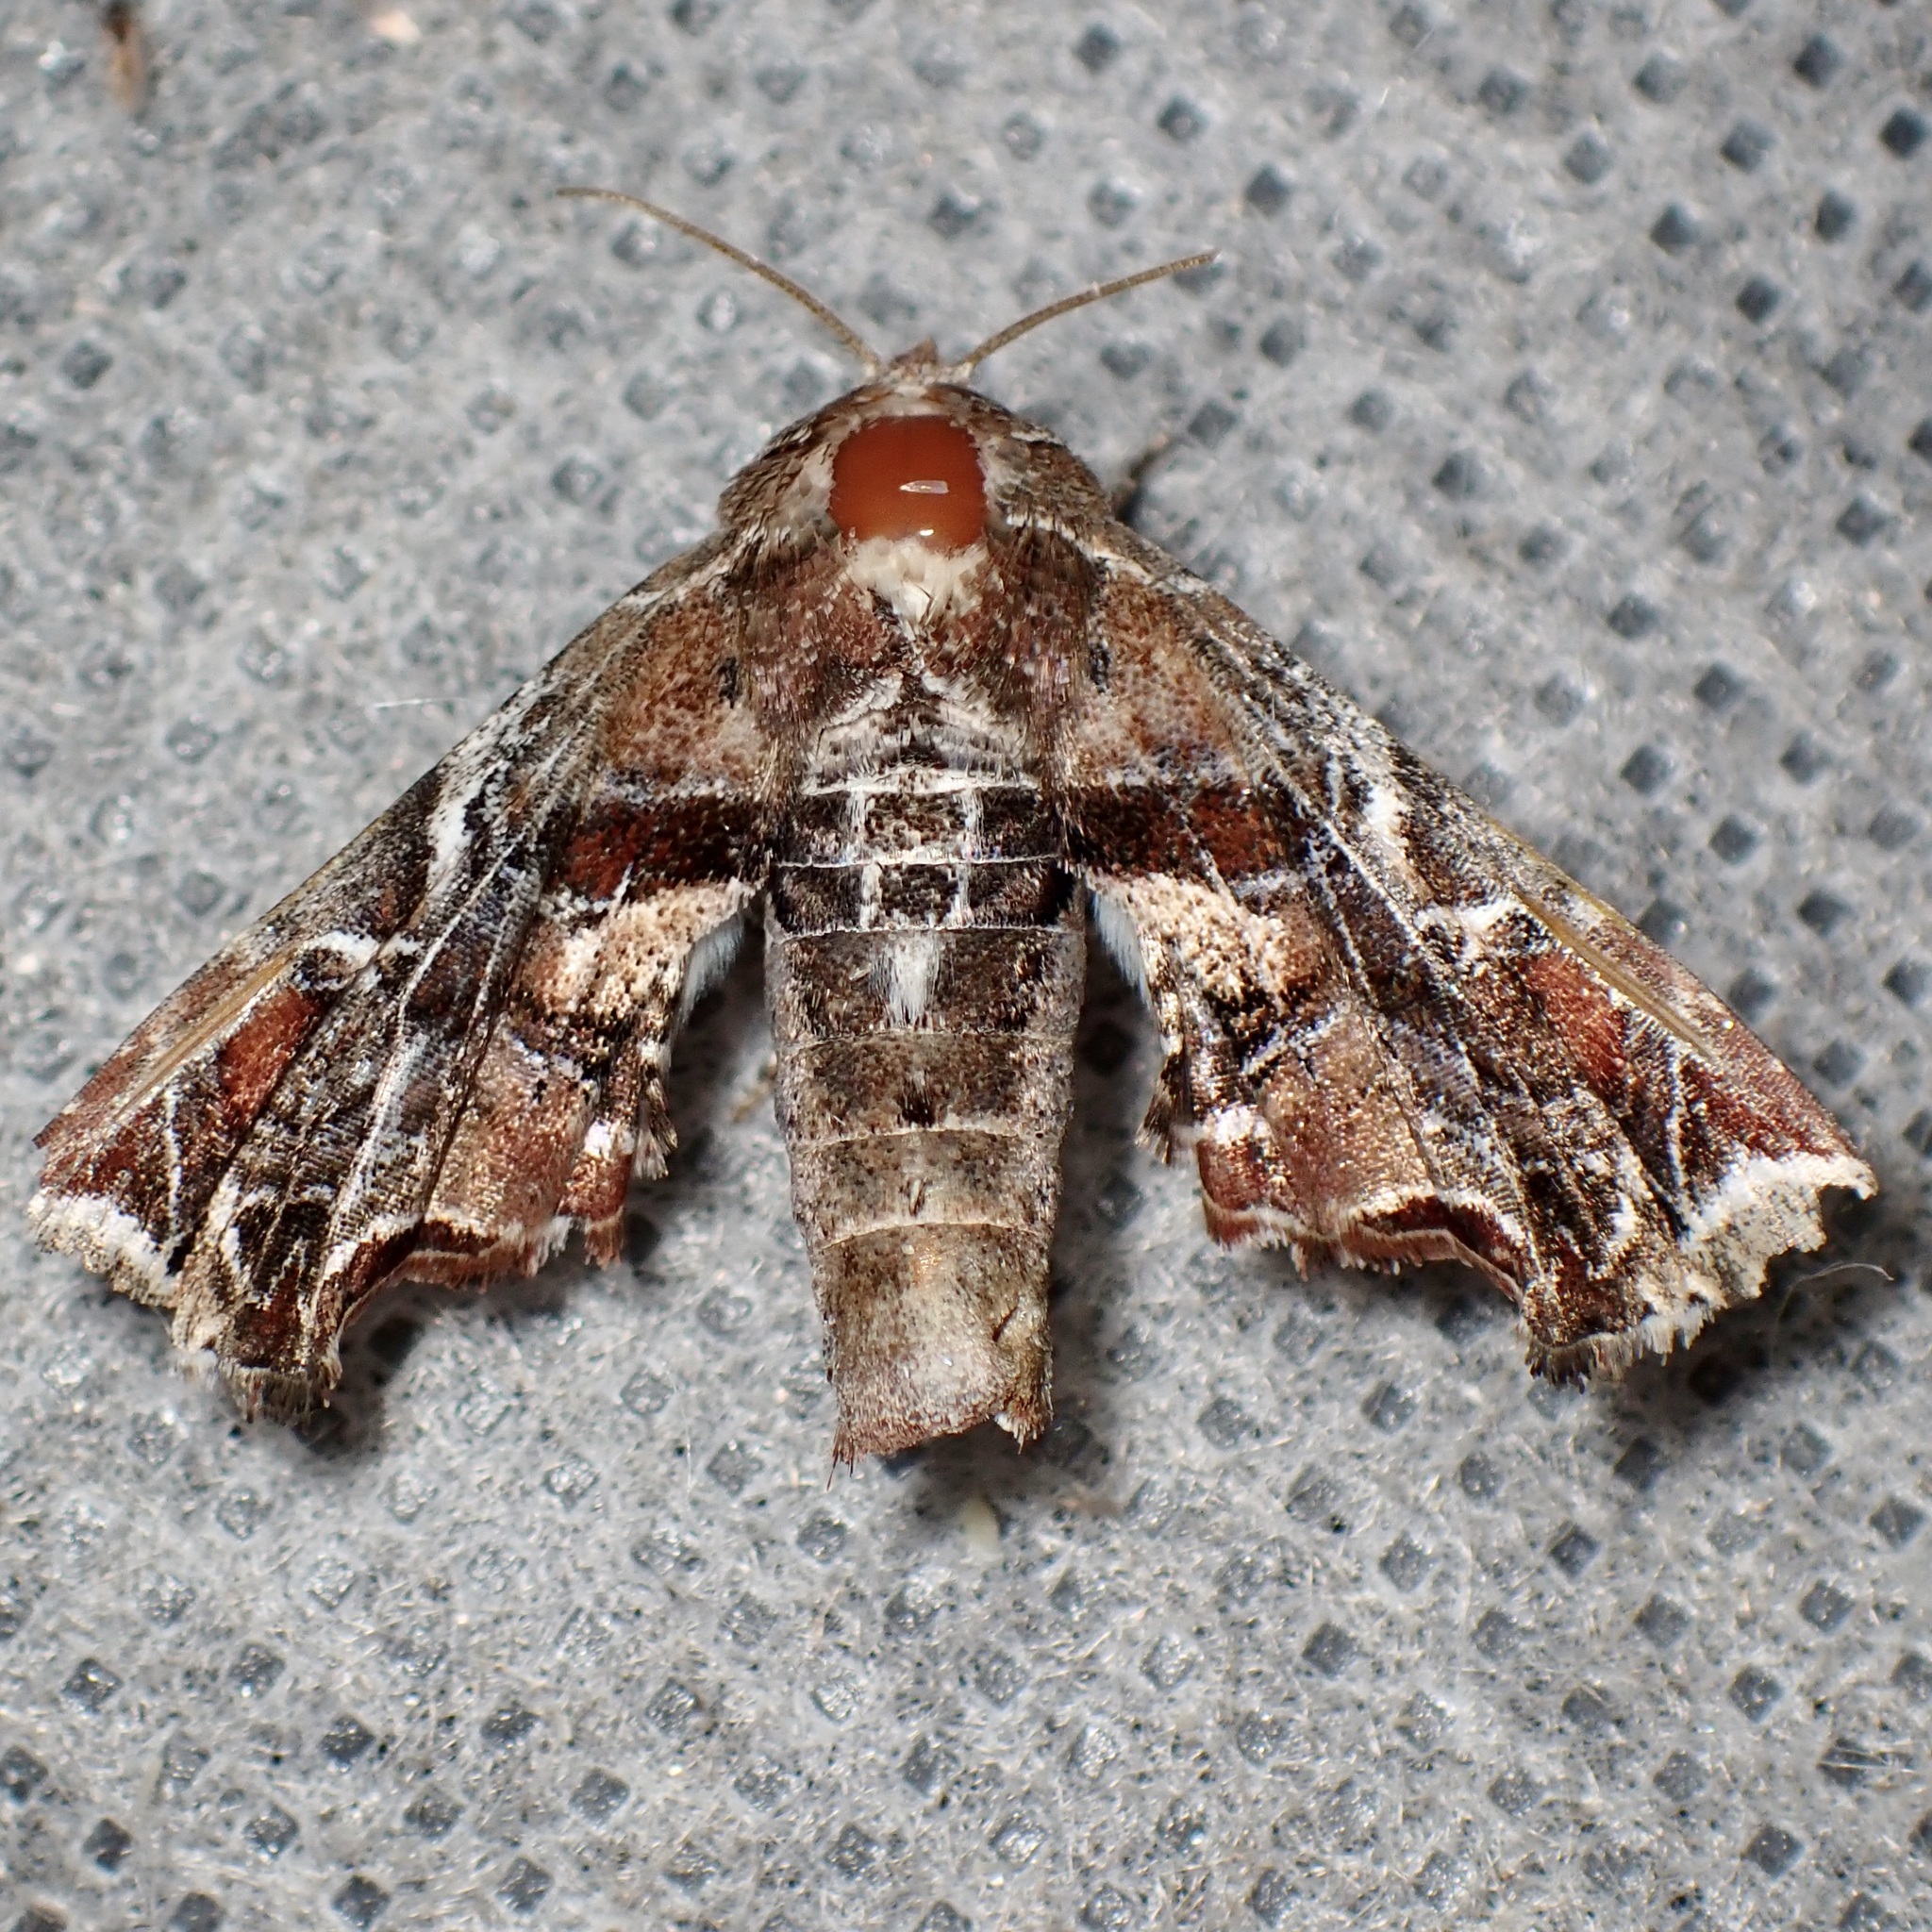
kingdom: Animalia
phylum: Arthropoda
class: Insecta
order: Lepidoptera
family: Euteliidae
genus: Eutelia
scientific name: Eutelia furcata
